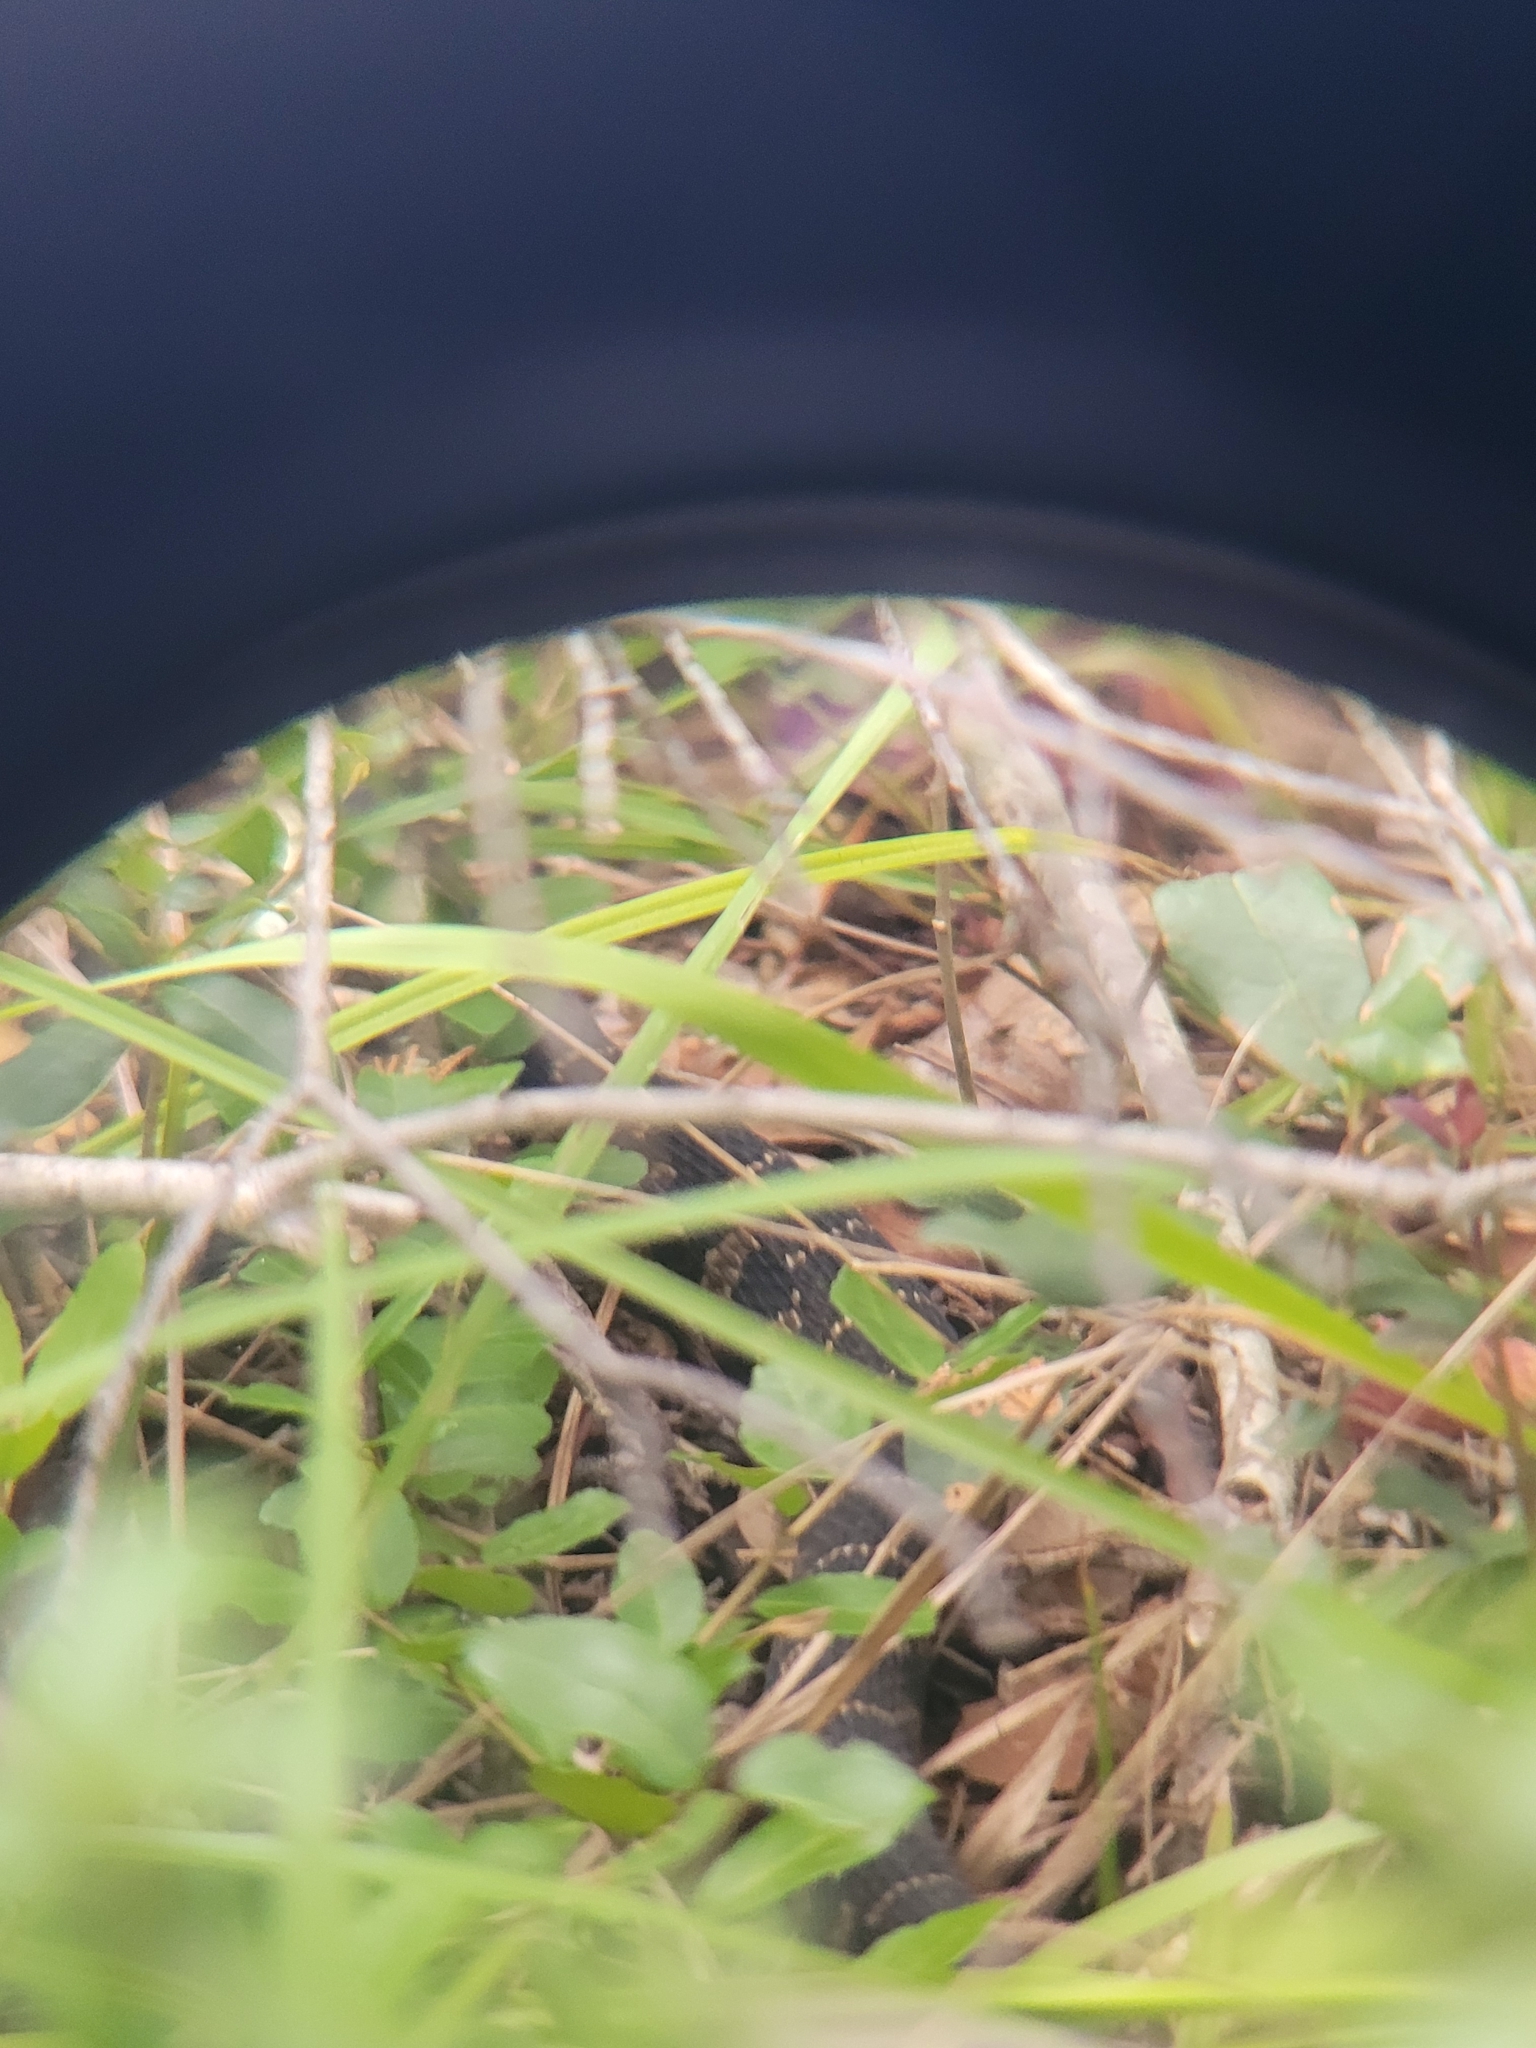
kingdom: Animalia
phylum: Chordata
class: Squamata
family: Colubridae
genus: Nerodia
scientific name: Nerodia sipedon
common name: Northern water snake
